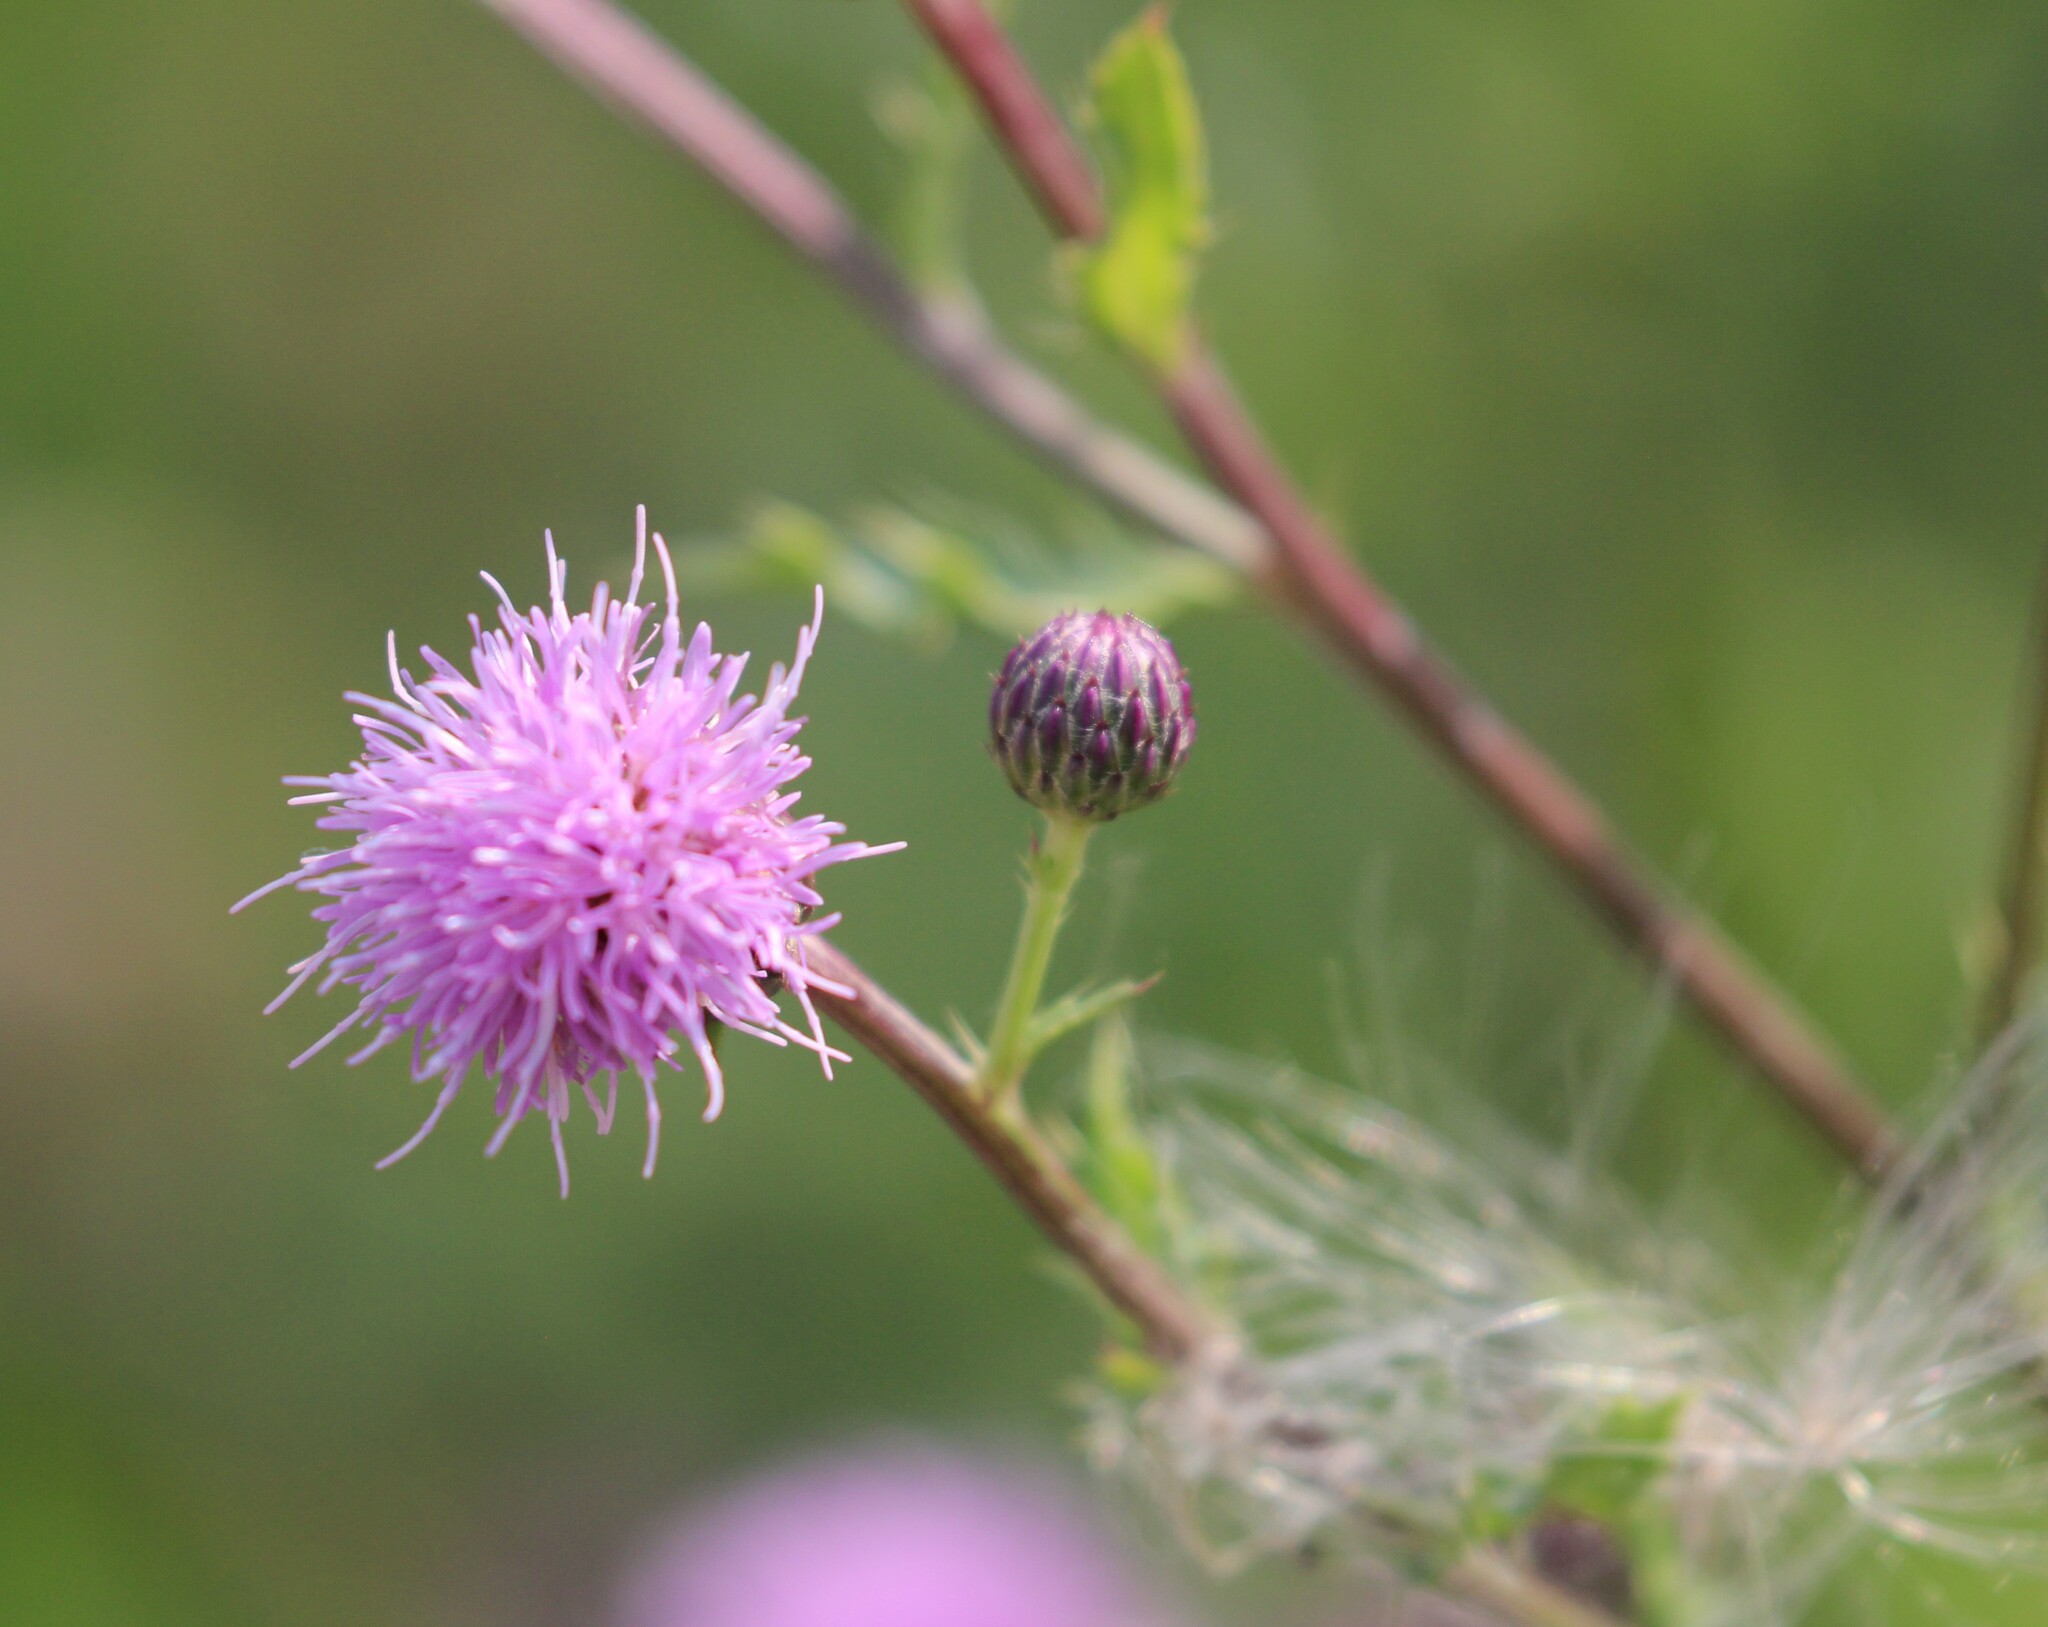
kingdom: Plantae
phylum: Tracheophyta
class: Magnoliopsida
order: Asterales
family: Asteraceae
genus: Cirsium
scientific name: Cirsium arvense
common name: Creeping thistle
